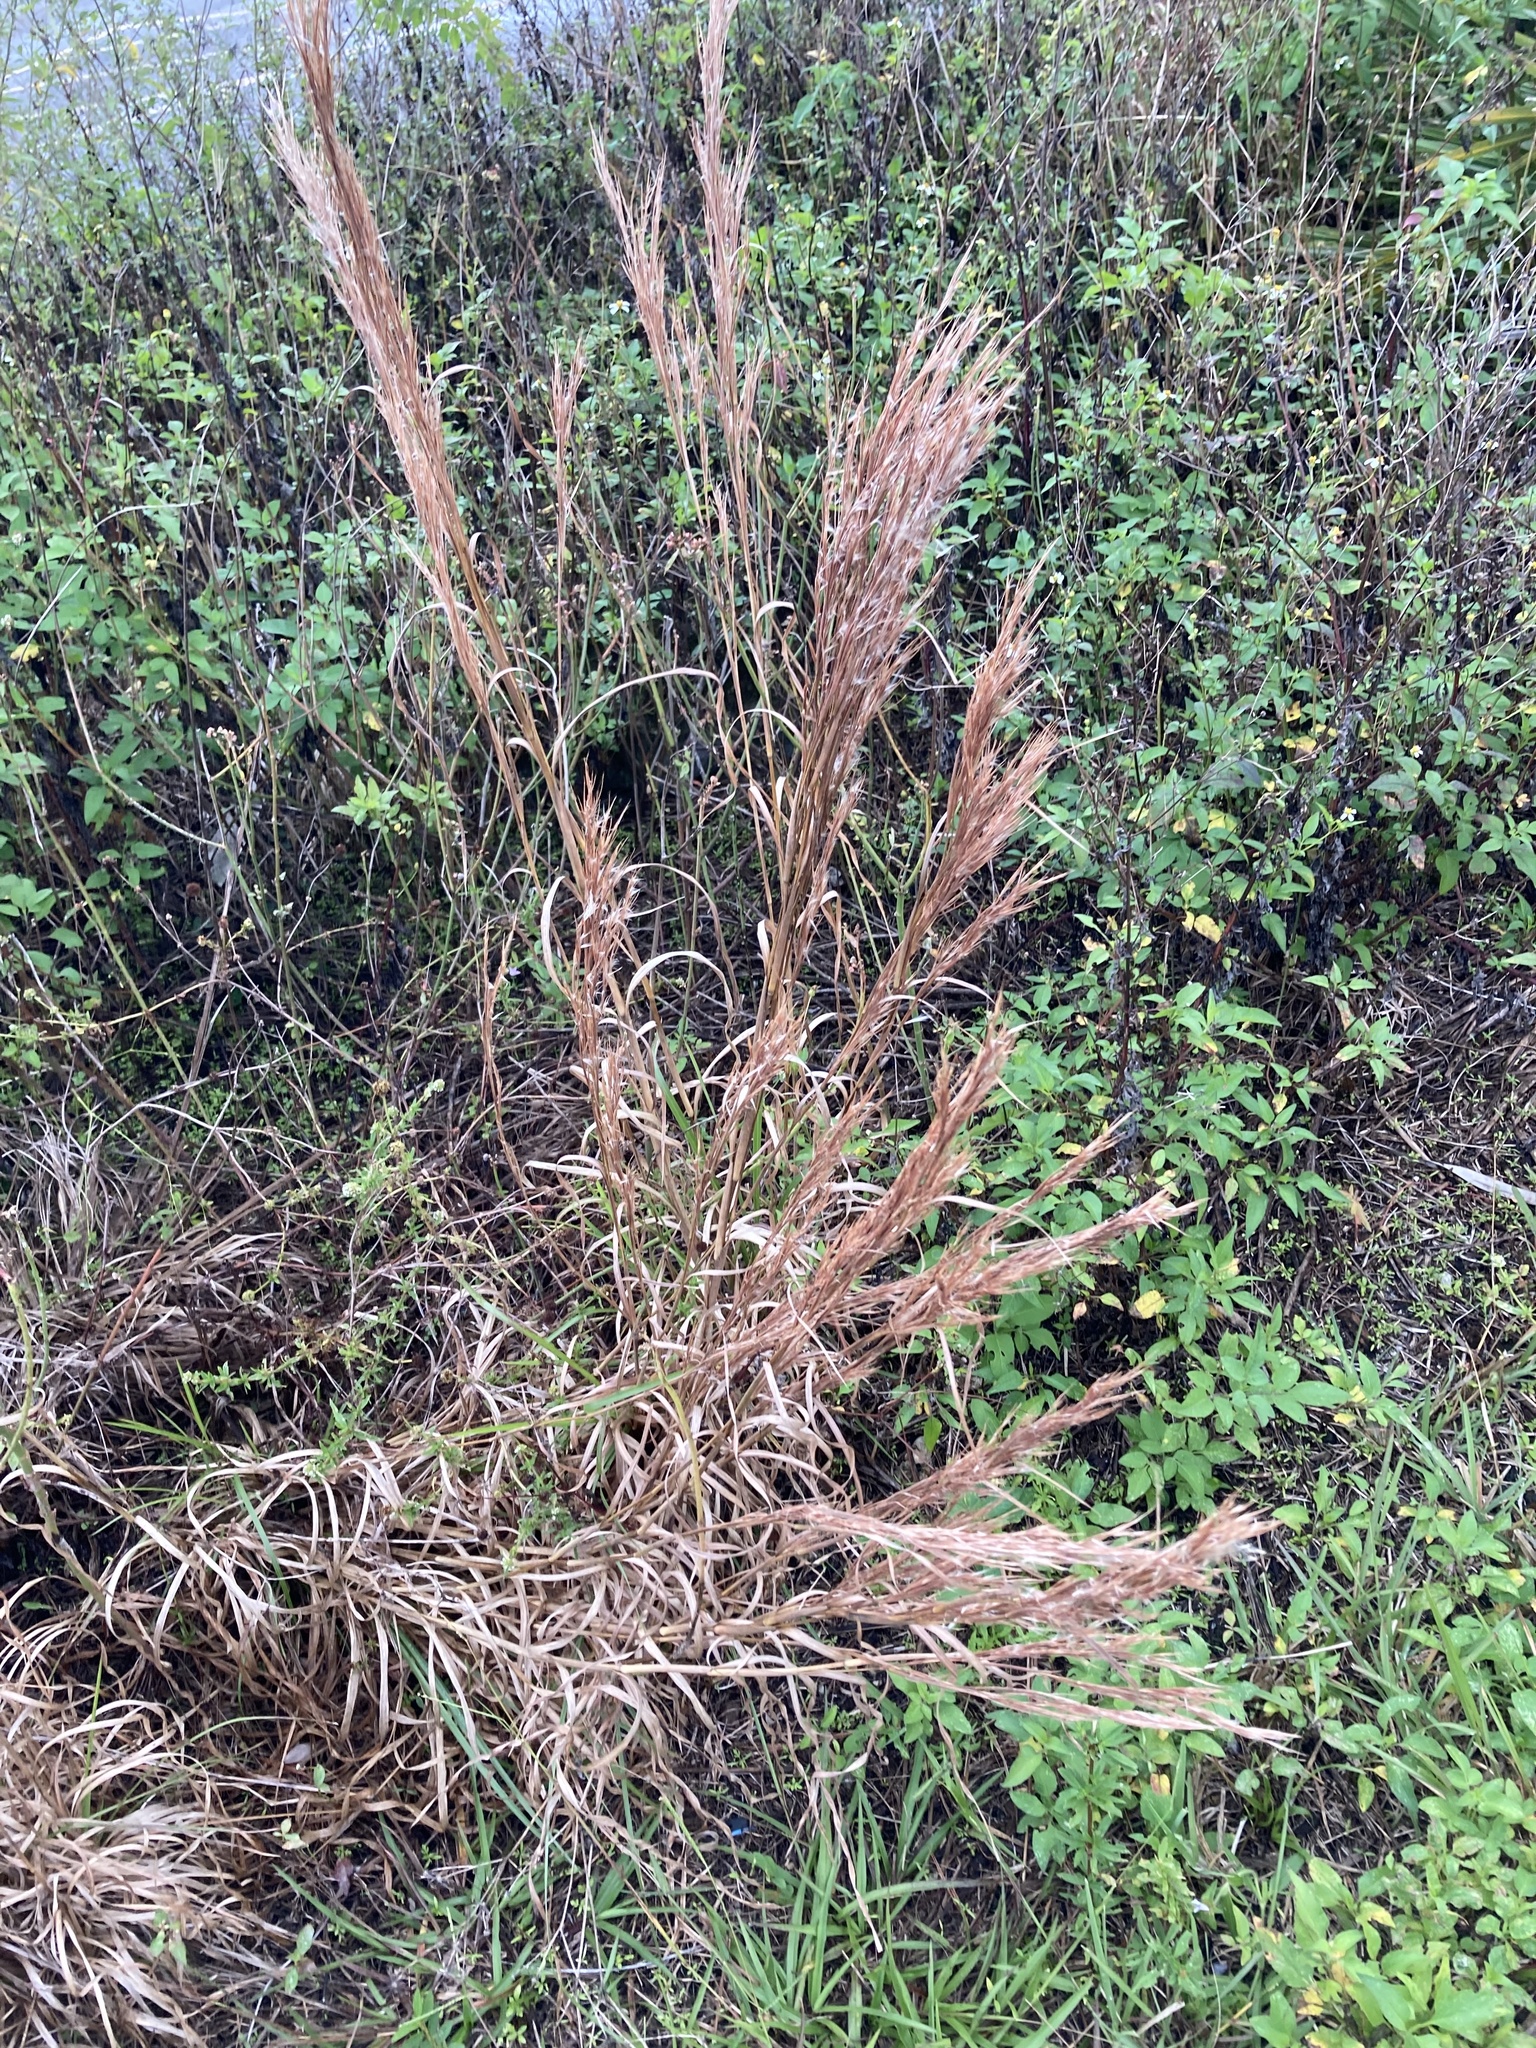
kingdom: Plantae
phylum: Tracheophyta
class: Liliopsida
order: Poales
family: Poaceae
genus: Andropogon
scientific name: Andropogon tenuispatheus
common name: Bushy bluestem
